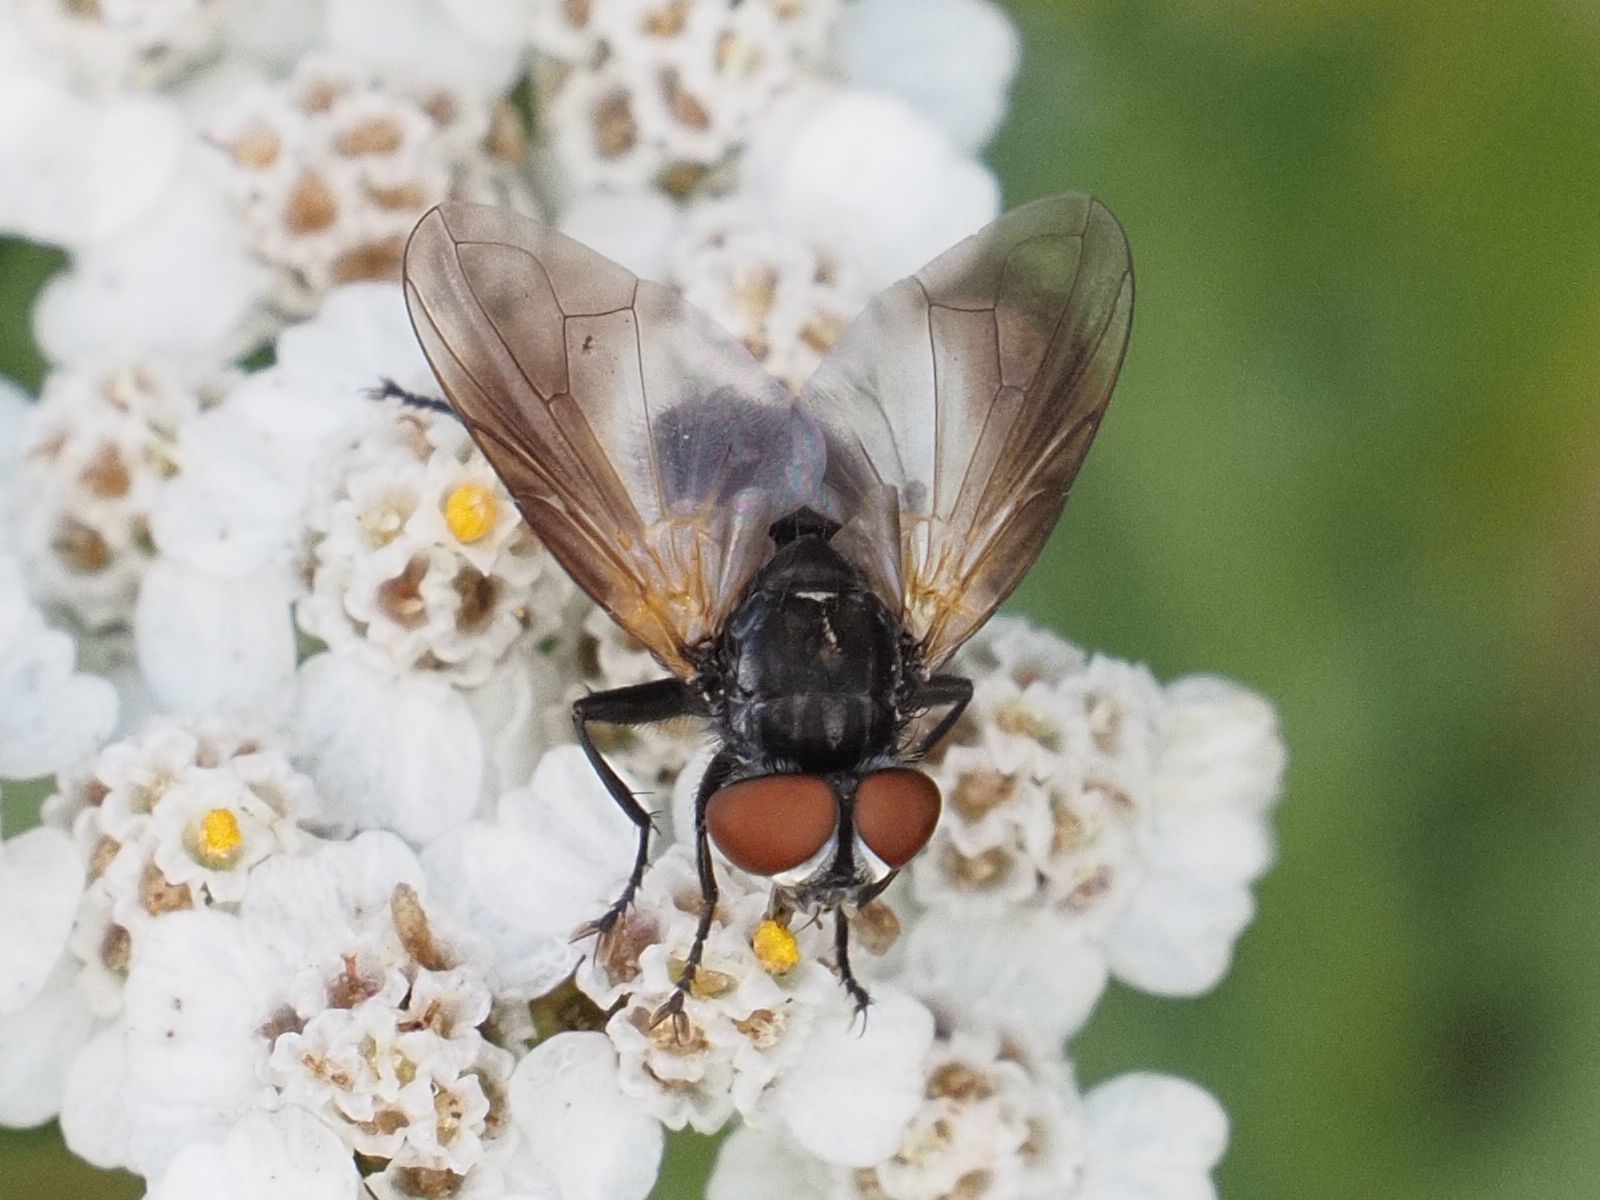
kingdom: Animalia
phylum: Arthropoda
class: Insecta
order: Diptera
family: Tachinidae
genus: Phasia
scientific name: Phasia obesa
